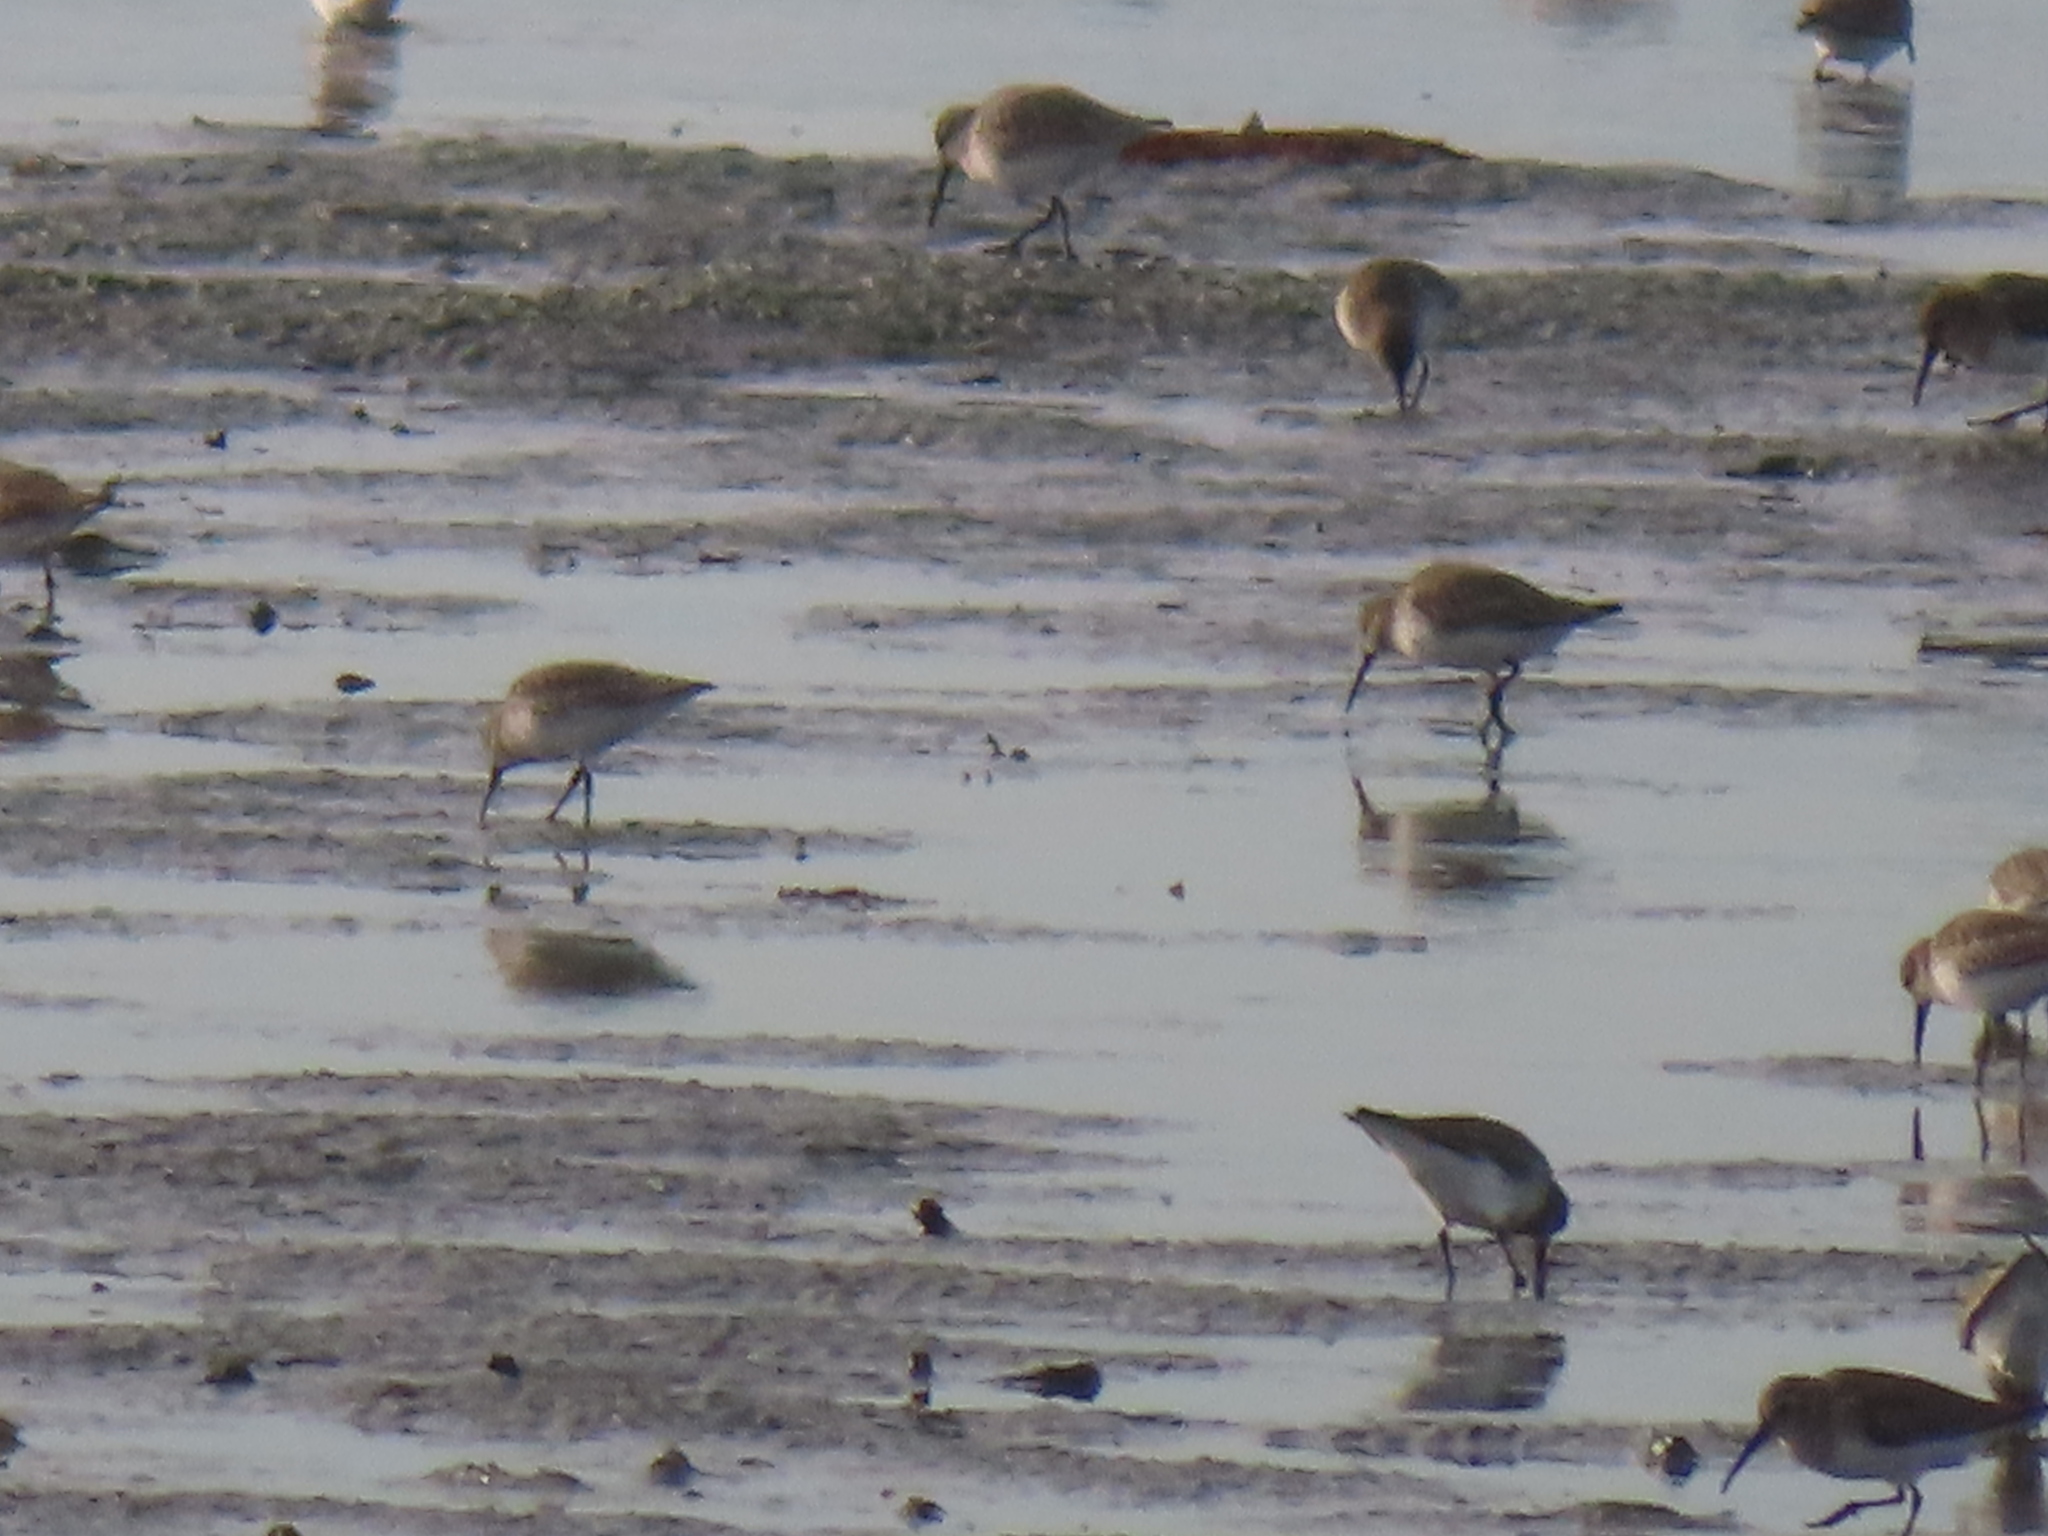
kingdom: Animalia
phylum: Chordata
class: Aves
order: Charadriiformes
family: Scolopacidae
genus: Calidris
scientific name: Calidris alpina
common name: Dunlin
